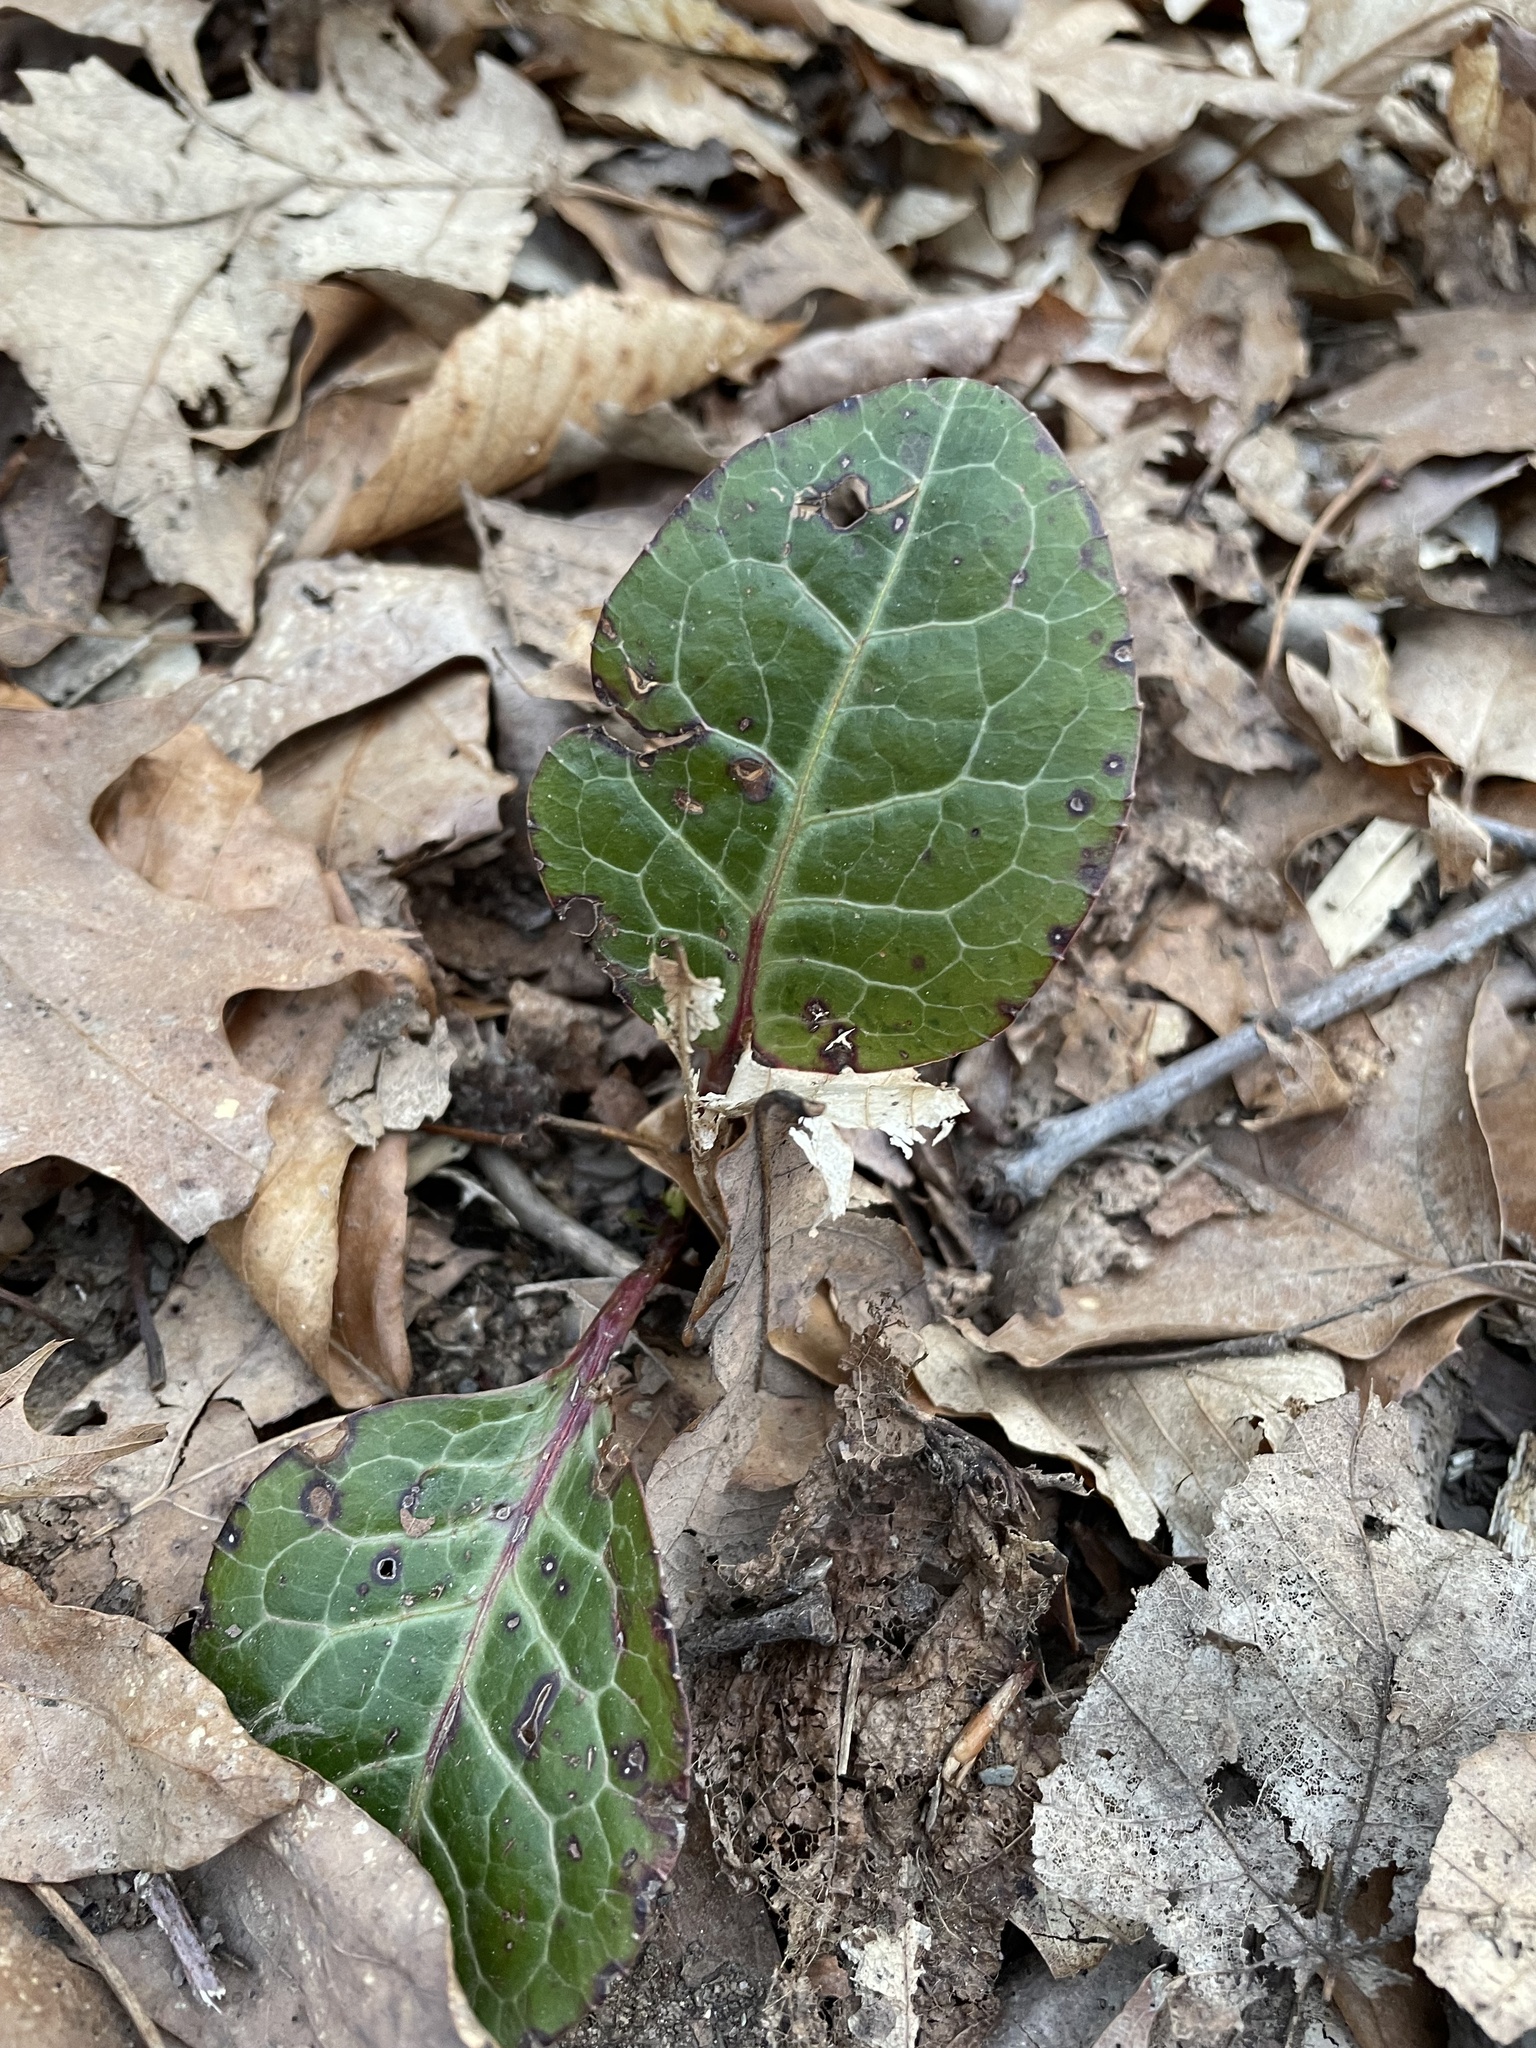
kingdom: Plantae
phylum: Tracheophyta
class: Magnoliopsida
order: Ericales
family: Ericaceae
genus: Pyrola
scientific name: Pyrola americana
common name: American wintergreen
